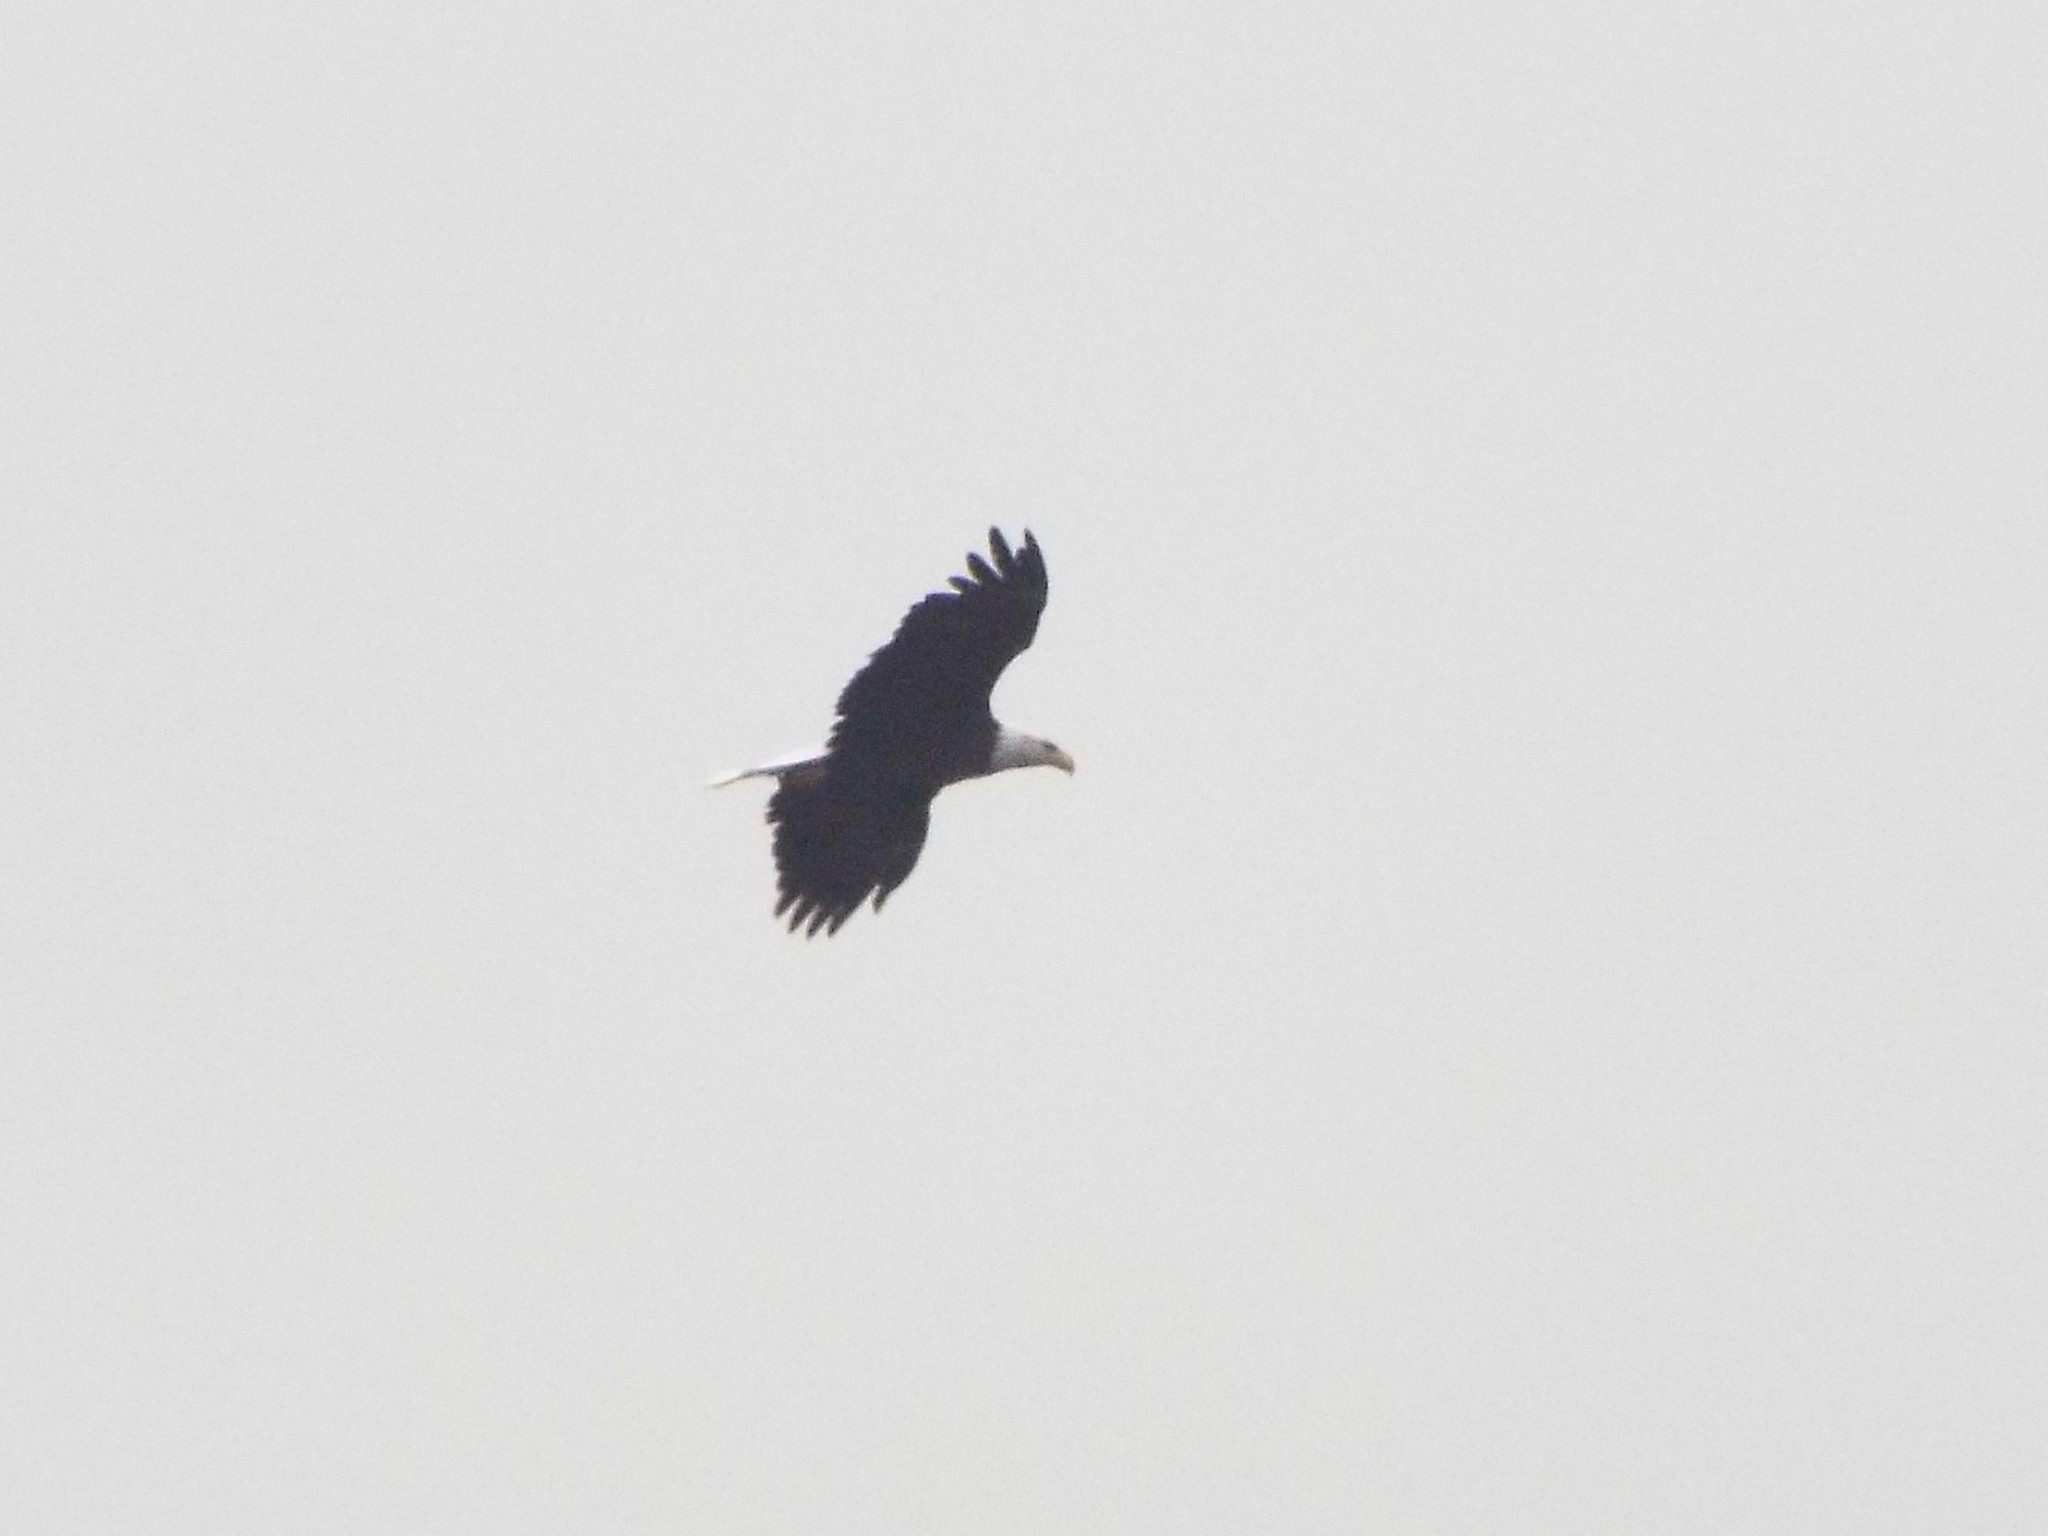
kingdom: Animalia
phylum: Chordata
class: Aves
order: Accipitriformes
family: Accipitridae
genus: Haliaeetus
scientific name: Haliaeetus leucocephalus
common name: Bald eagle
